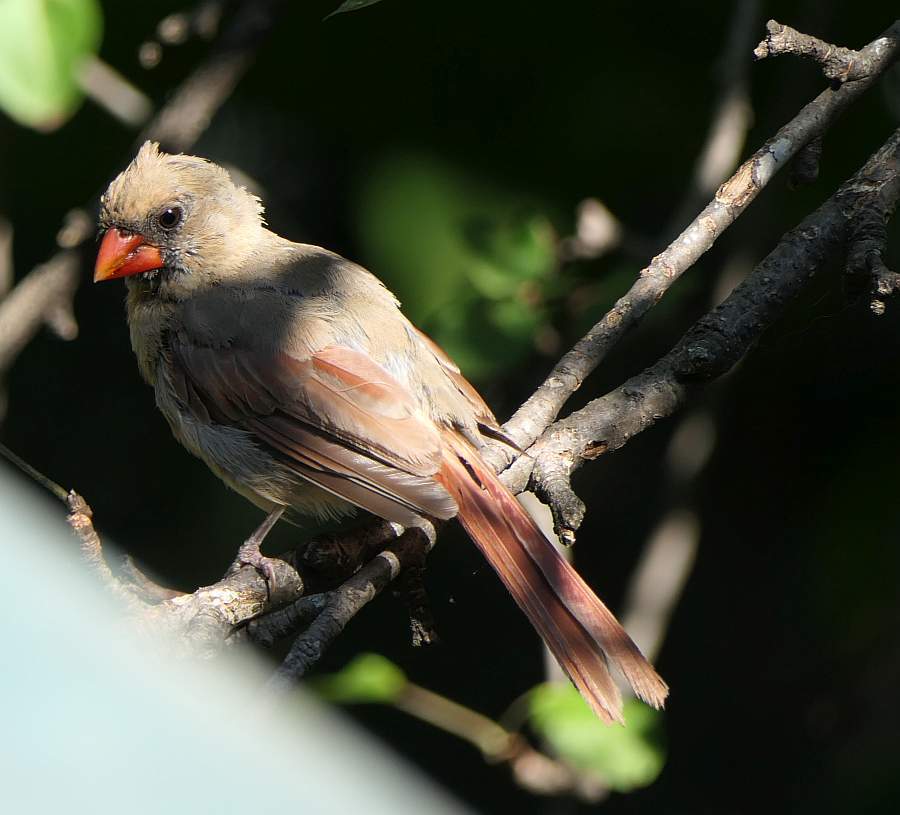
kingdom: Animalia
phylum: Chordata
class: Aves
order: Passeriformes
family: Cardinalidae
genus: Cardinalis
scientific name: Cardinalis cardinalis
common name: Northern cardinal
